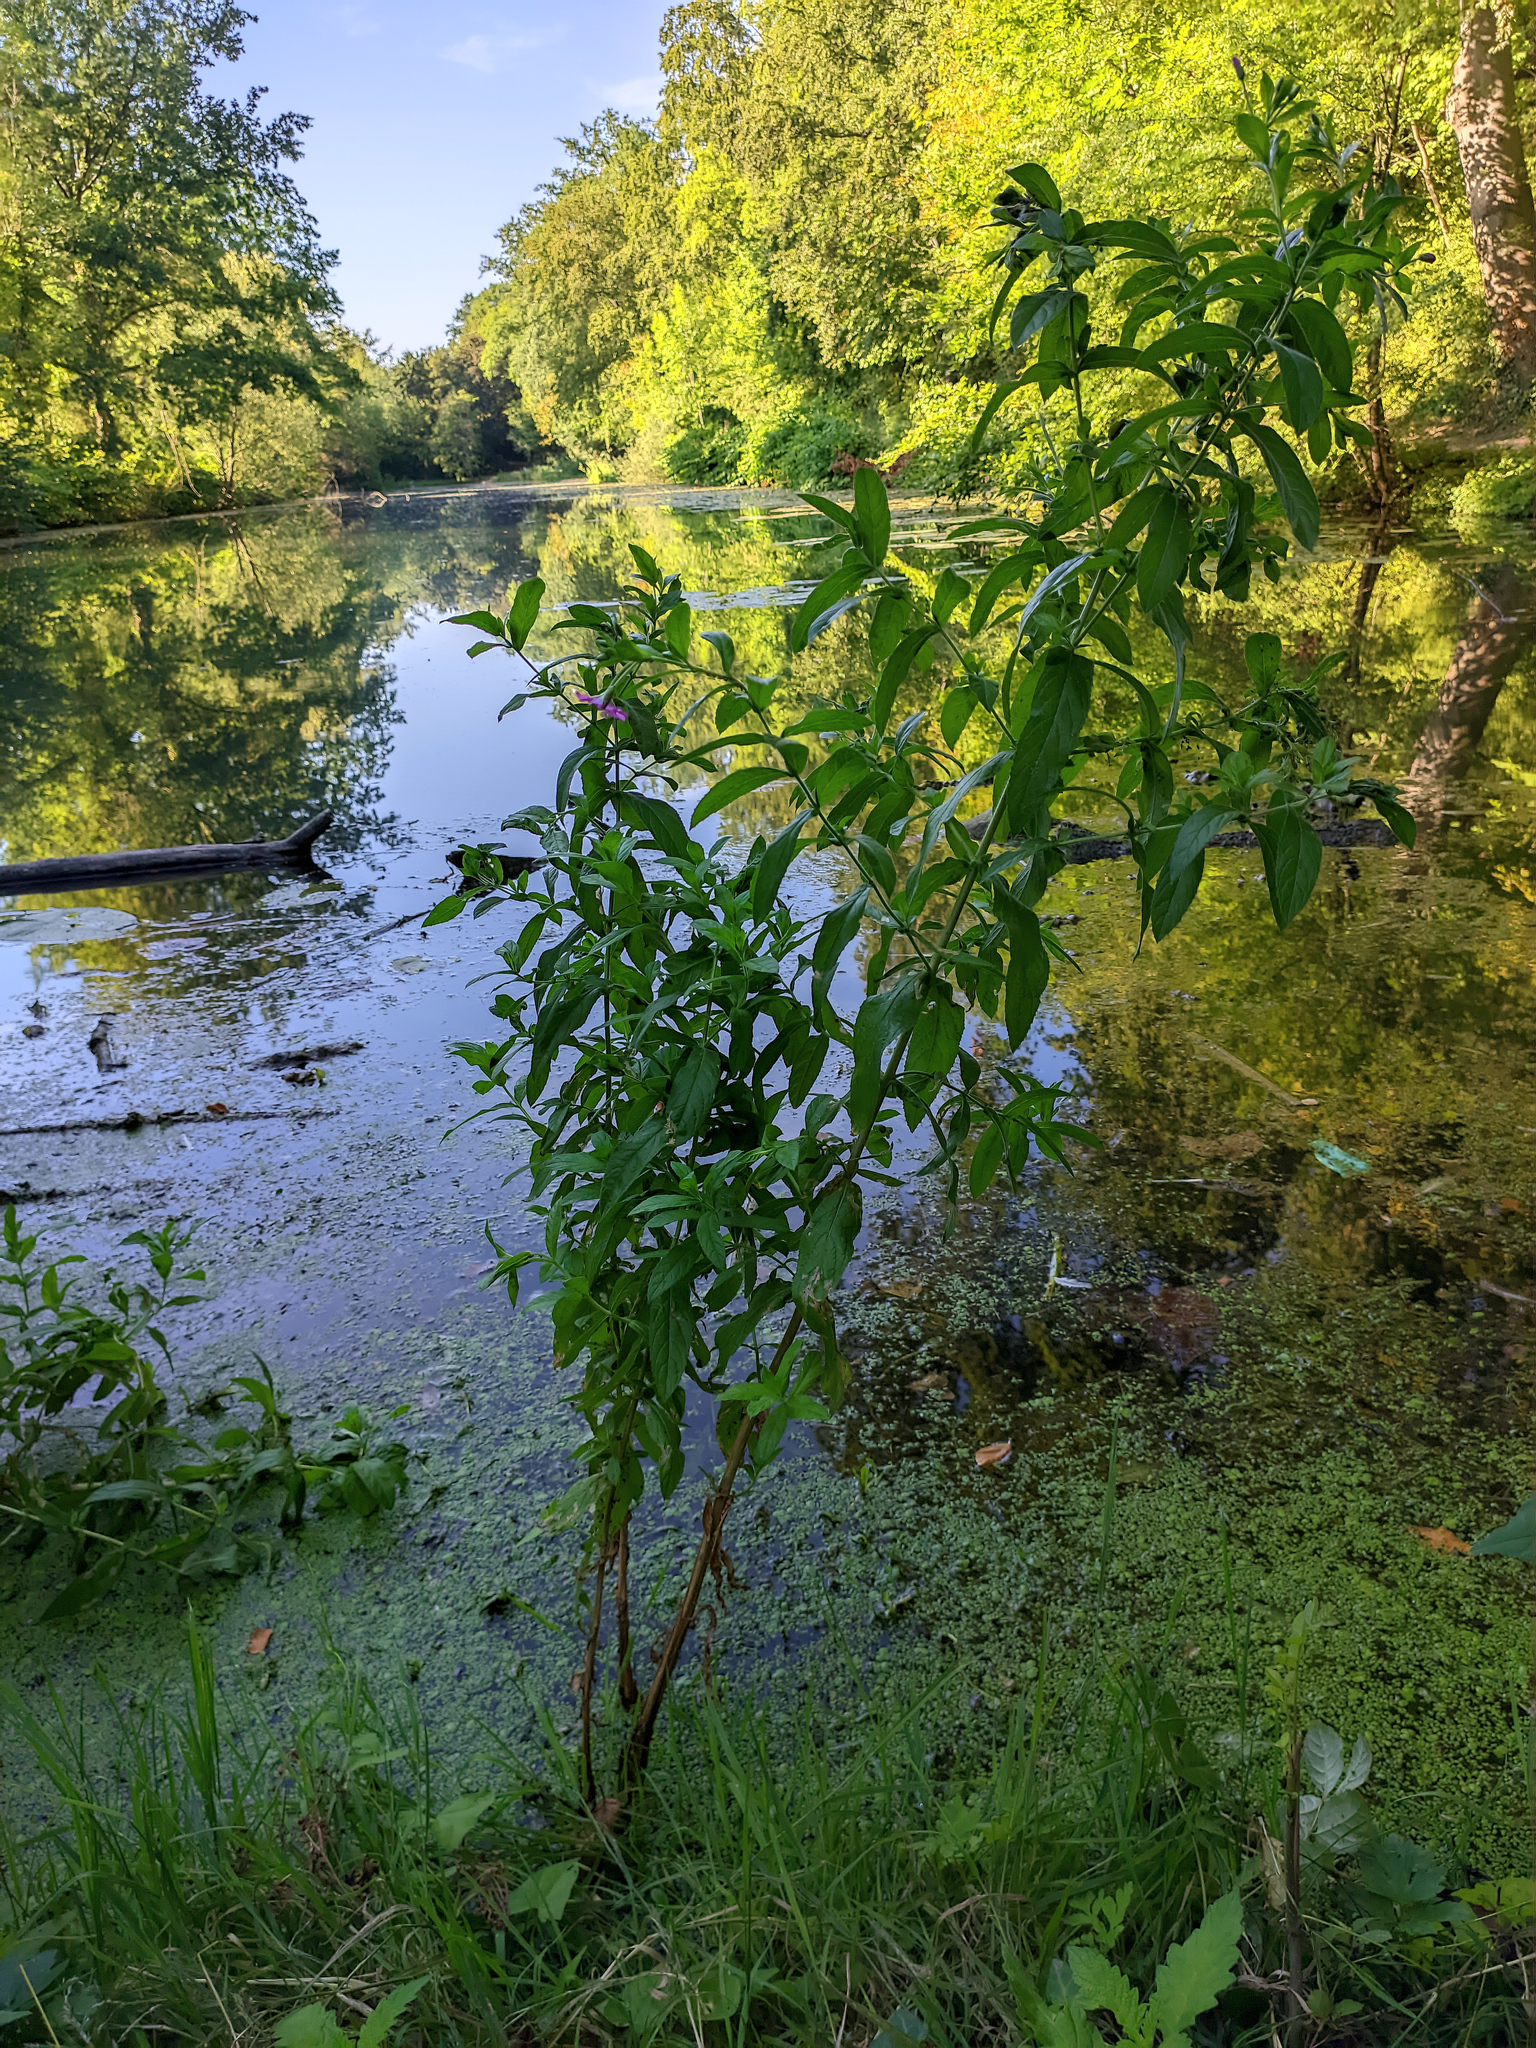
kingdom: Plantae
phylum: Tracheophyta
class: Magnoliopsida
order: Myrtales
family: Onagraceae
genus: Epilobium
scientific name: Epilobium hirsutum
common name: Great willowherb
